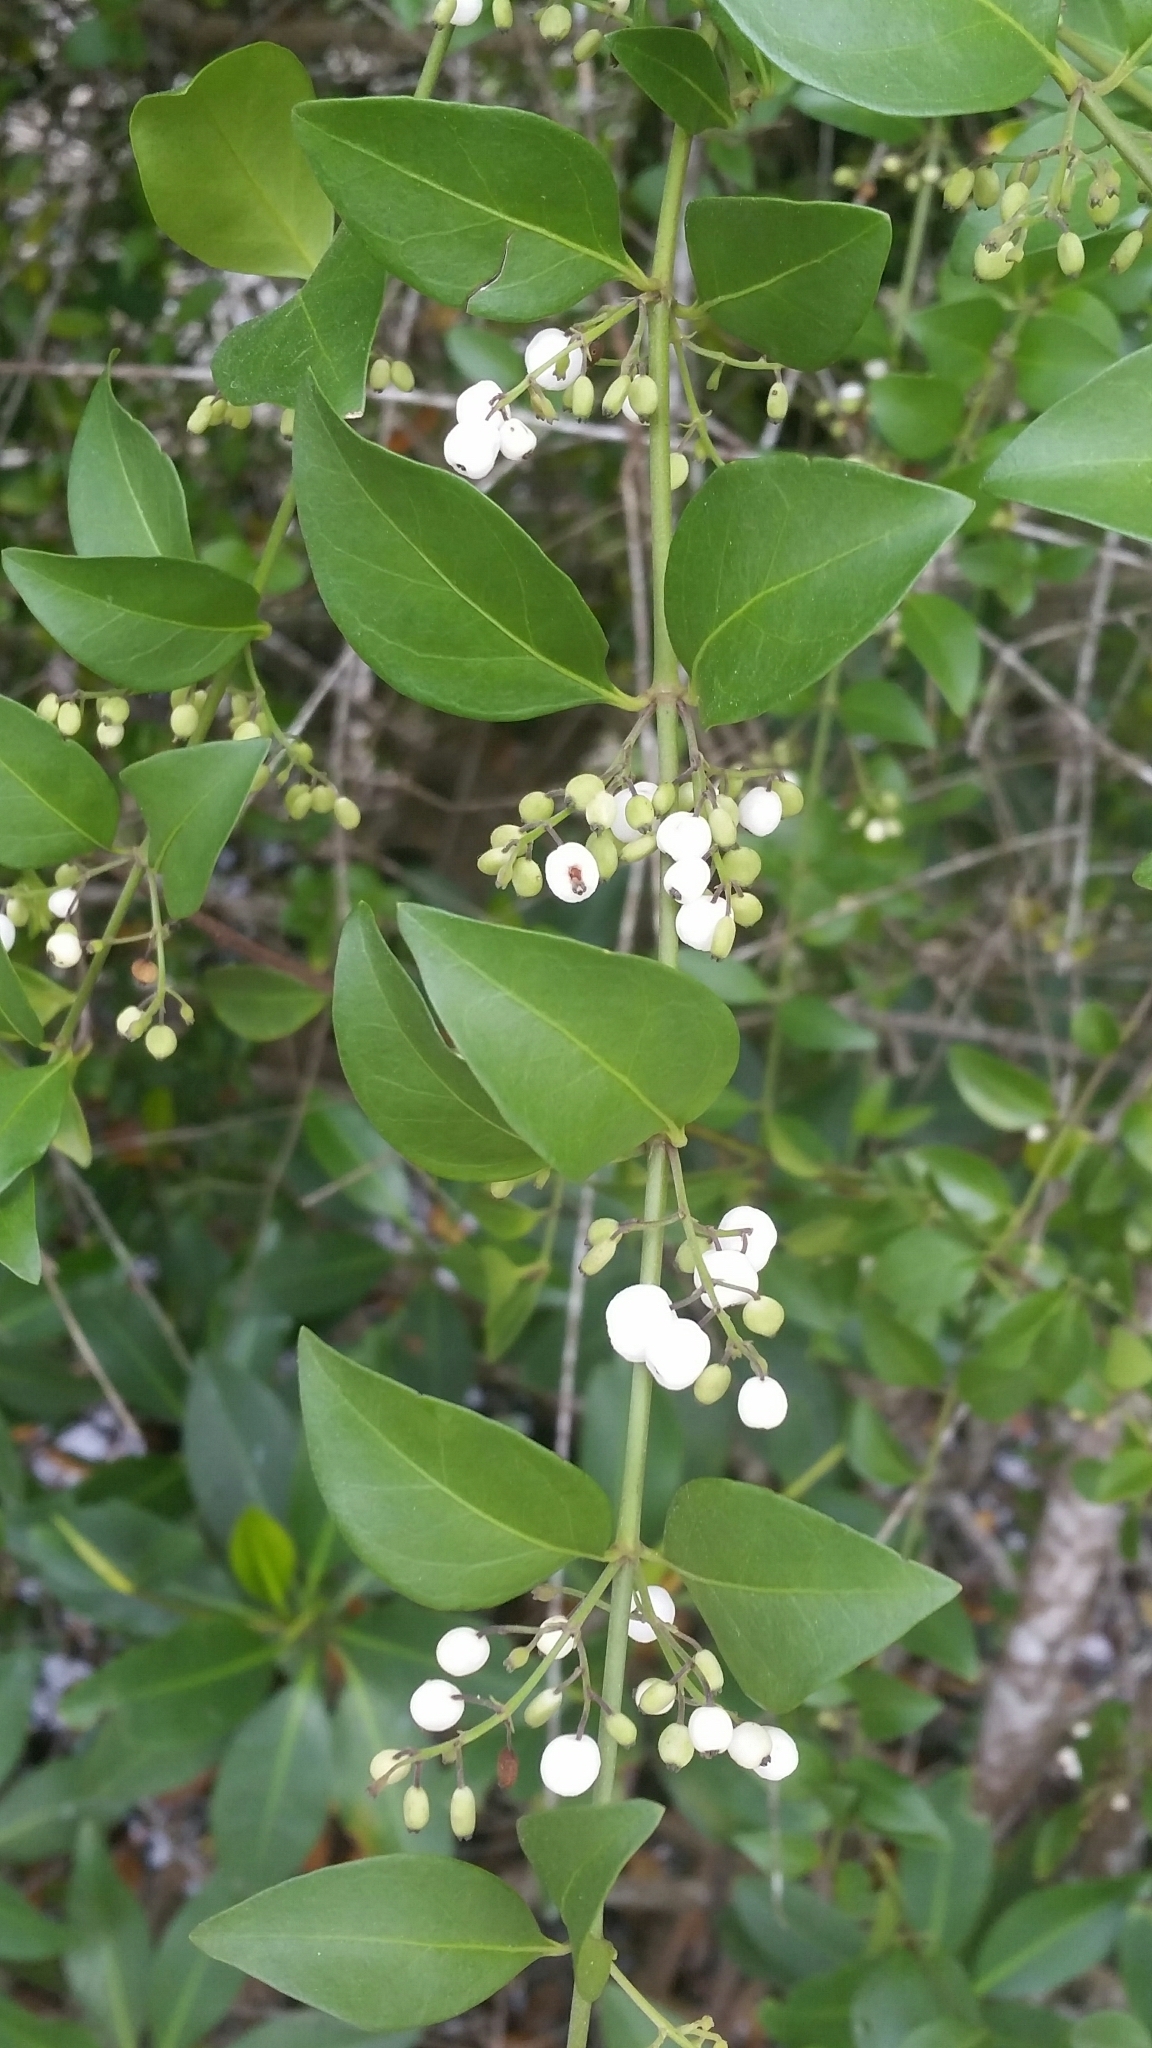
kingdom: Plantae
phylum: Tracheophyta
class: Magnoliopsida
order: Gentianales
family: Rubiaceae
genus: Chiococca
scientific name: Chiococca alba
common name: Snowberry
